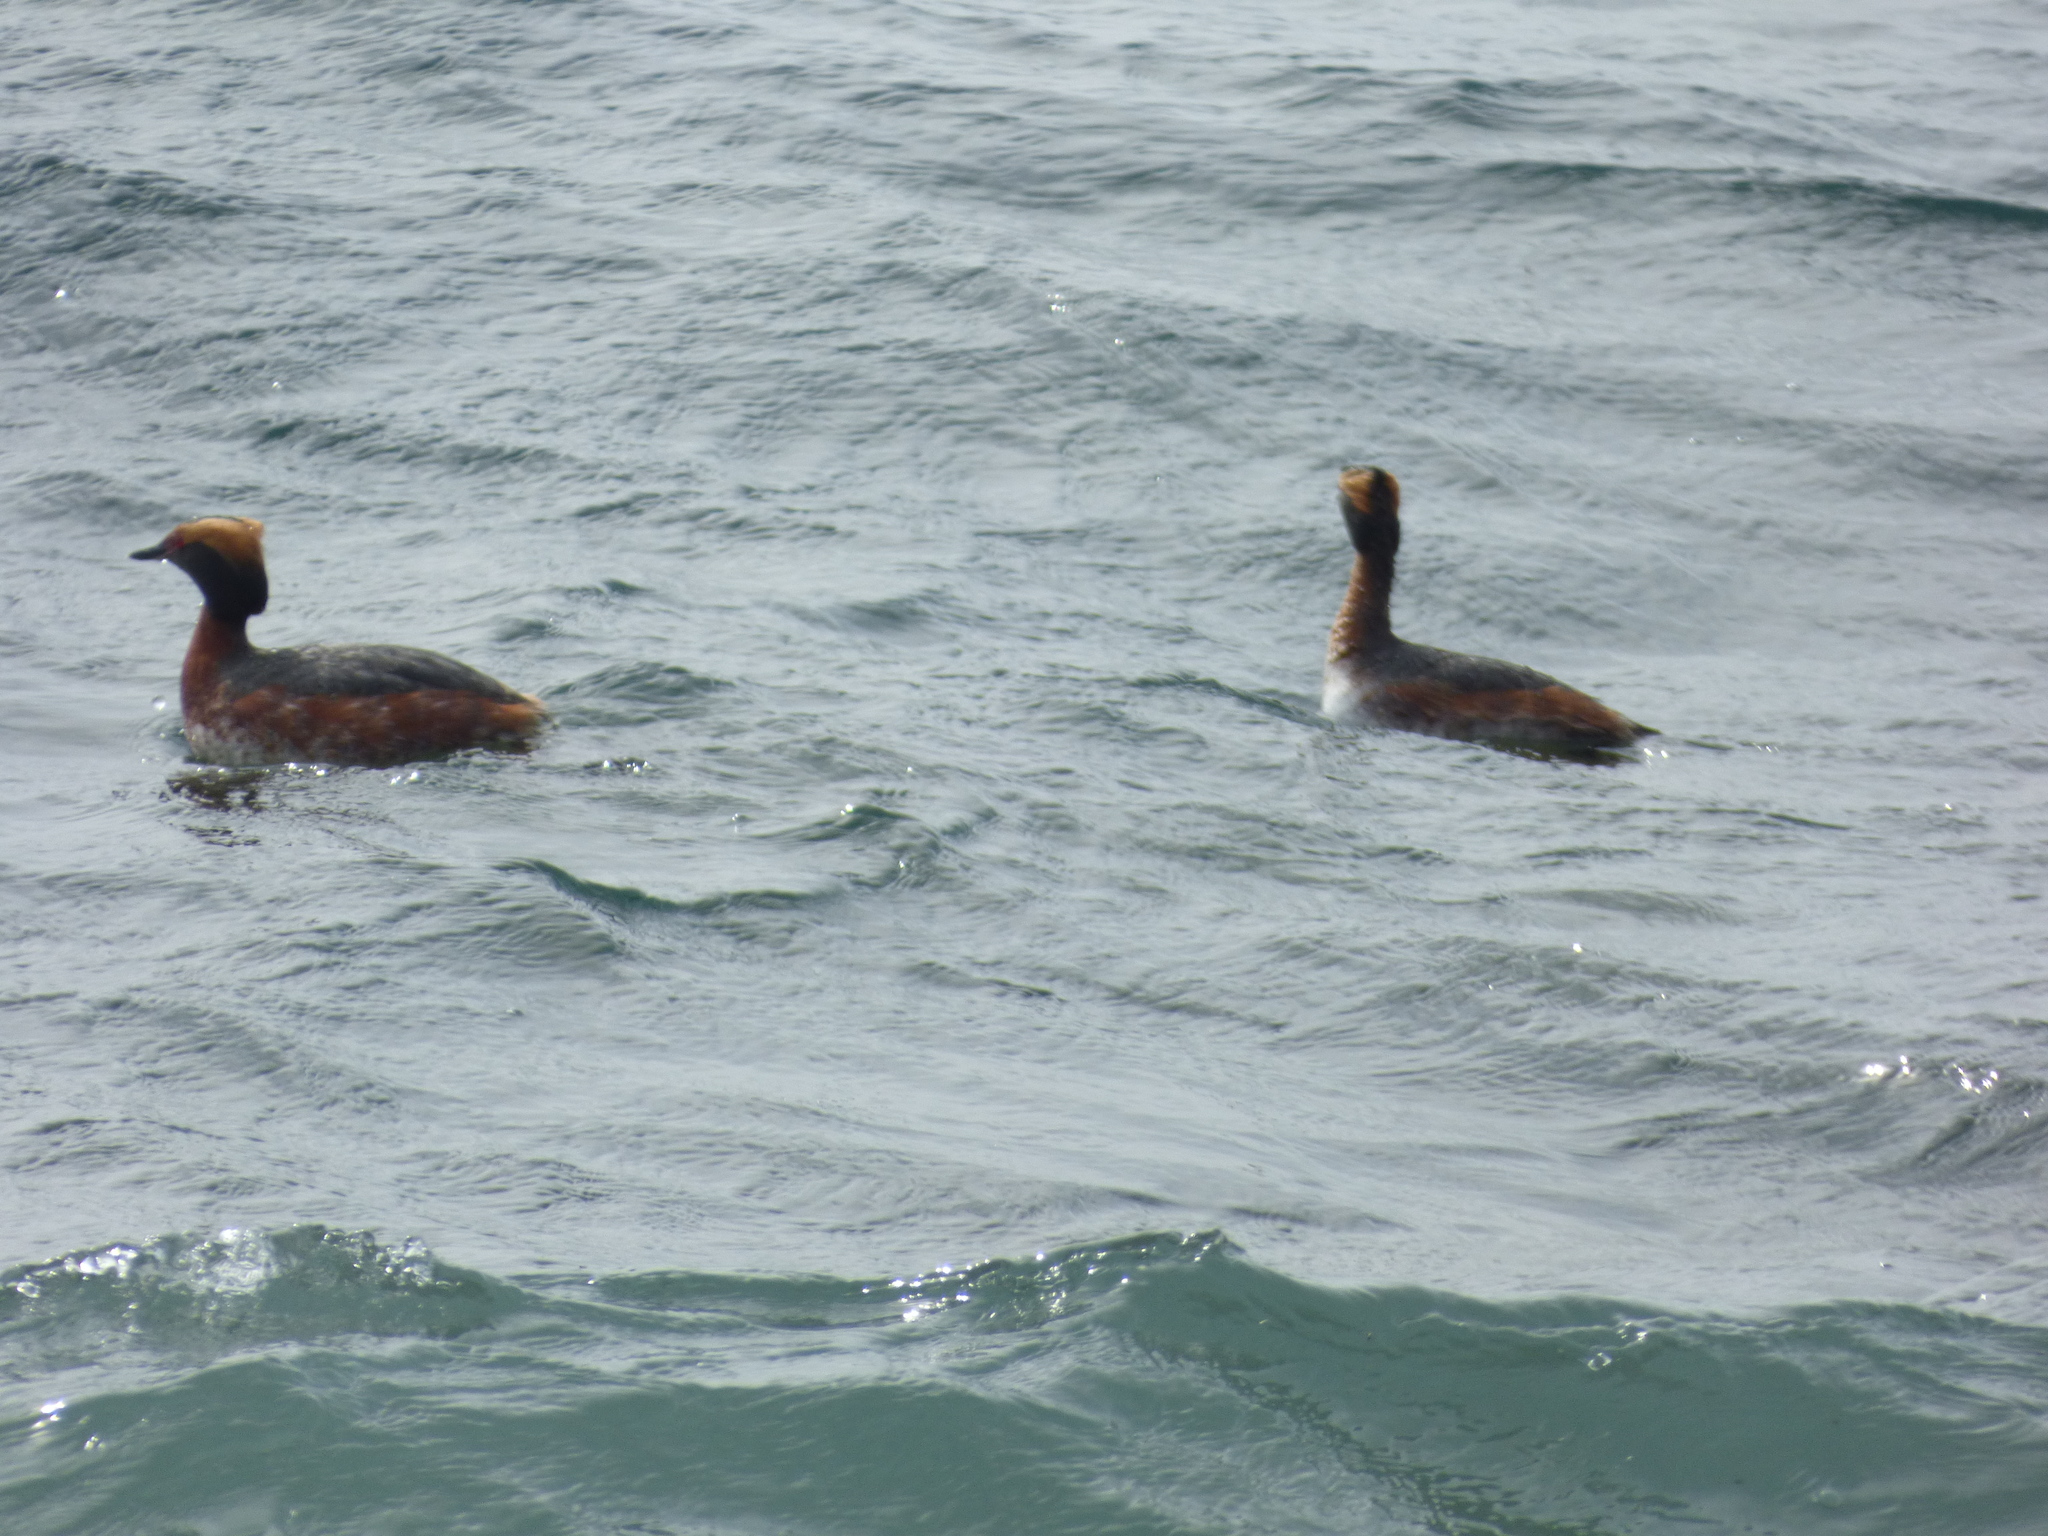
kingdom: Animalia
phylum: Chordata
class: Aves
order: Podicipediformes
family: Podicipedidae
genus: Podiceps
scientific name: Podiceps auritus
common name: Horned grebe
